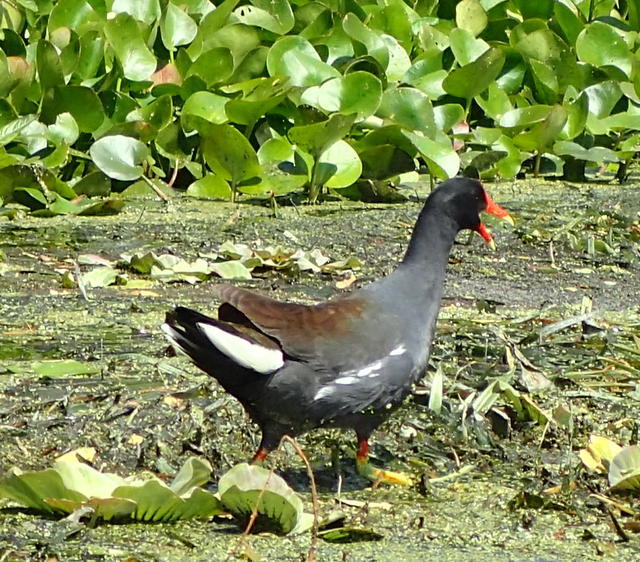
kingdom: Animalia
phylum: Chordata
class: Aves
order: Gruiformes
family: Rallidae
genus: Gallinula
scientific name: Gallinula chloropus
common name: Common moorhen
